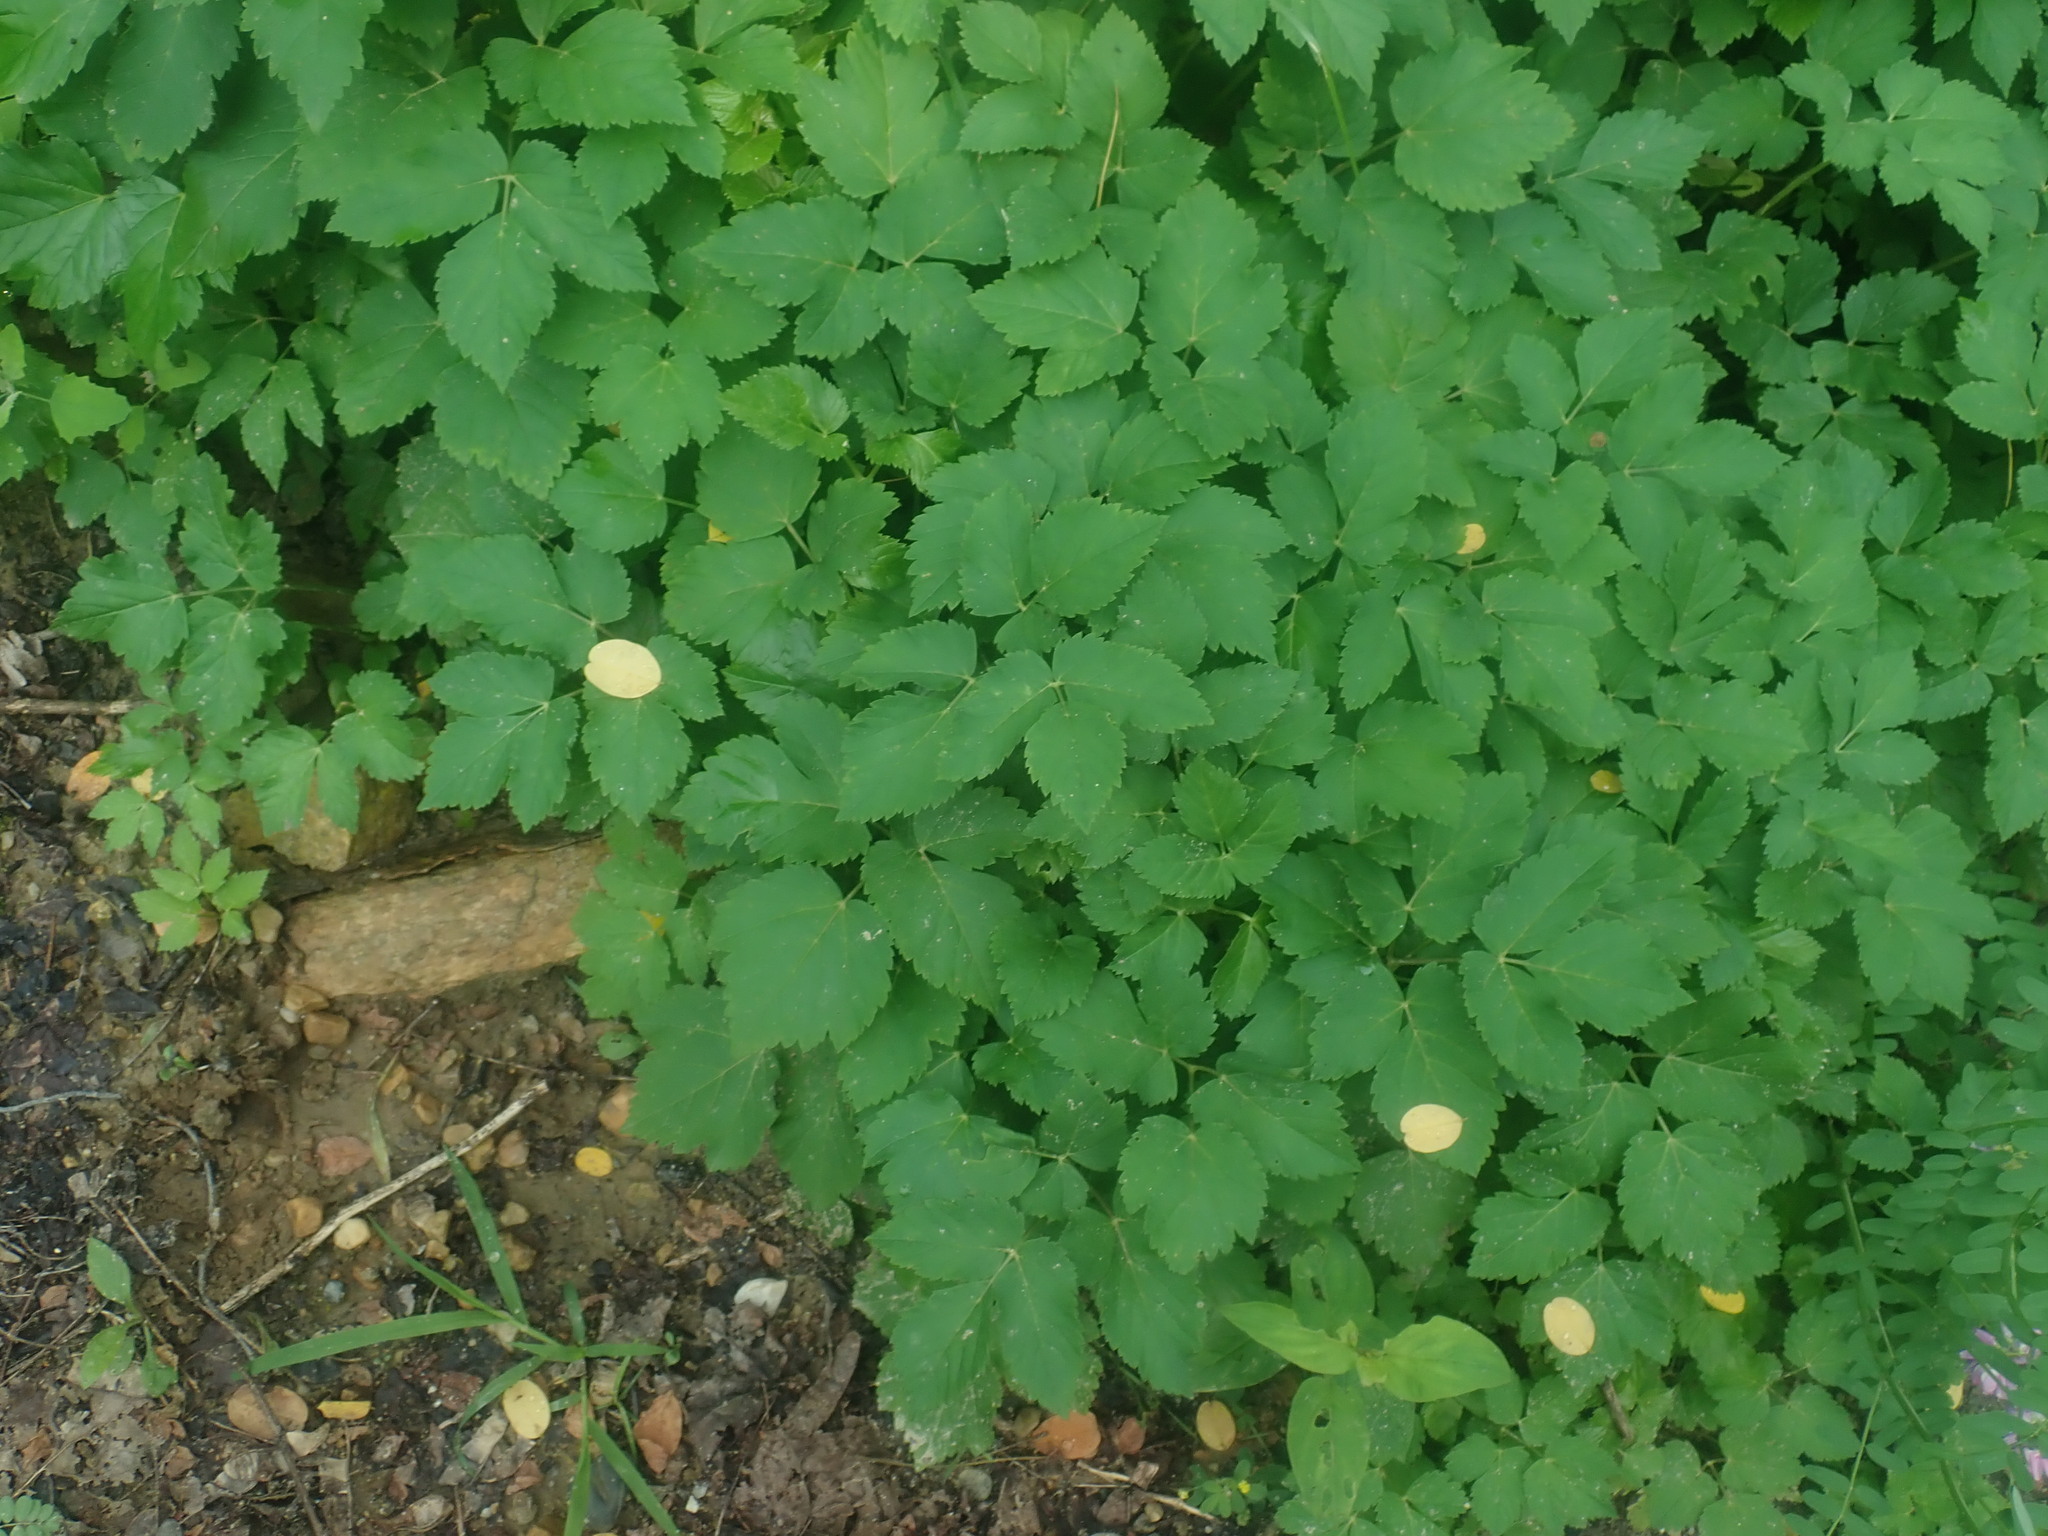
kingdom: Plantae
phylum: Tracheophyta
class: Magnoliopsida
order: Apiales
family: Apiaceae
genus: Aegopodium
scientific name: Aegopodium podagraria
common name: Ground-elder
